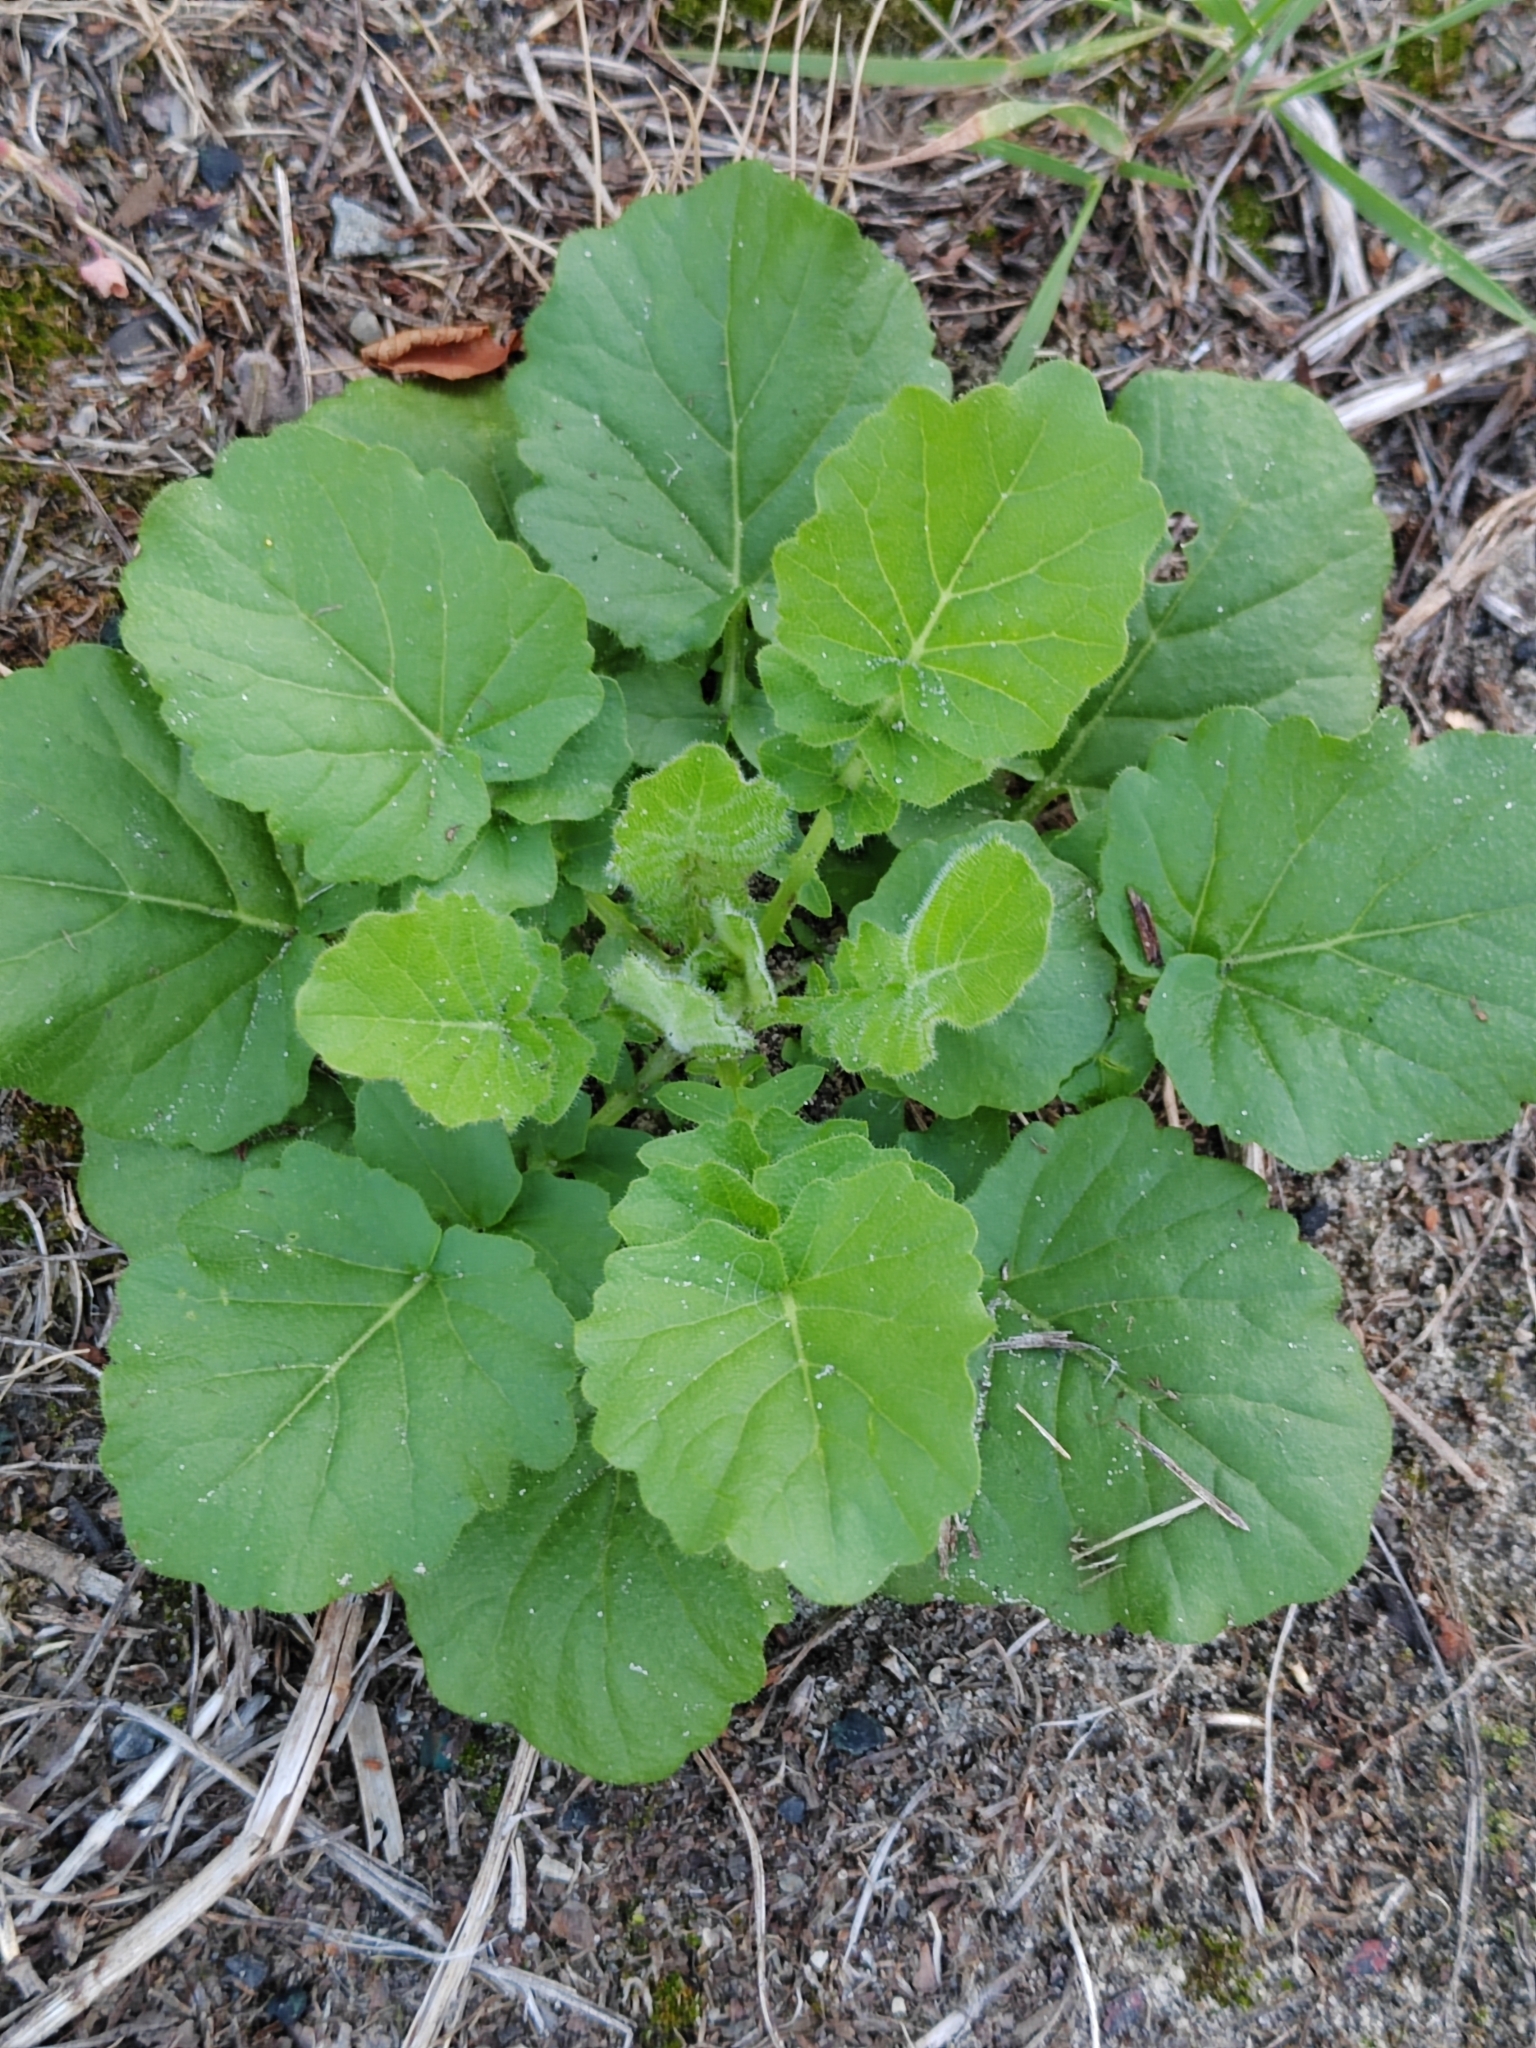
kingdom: Plantae
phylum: Tracheophyta
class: Magnoliopsida
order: Brassicales
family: Brassicaceae
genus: Barbarea
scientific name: Barbarea vulgaris
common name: Cressy-greens
